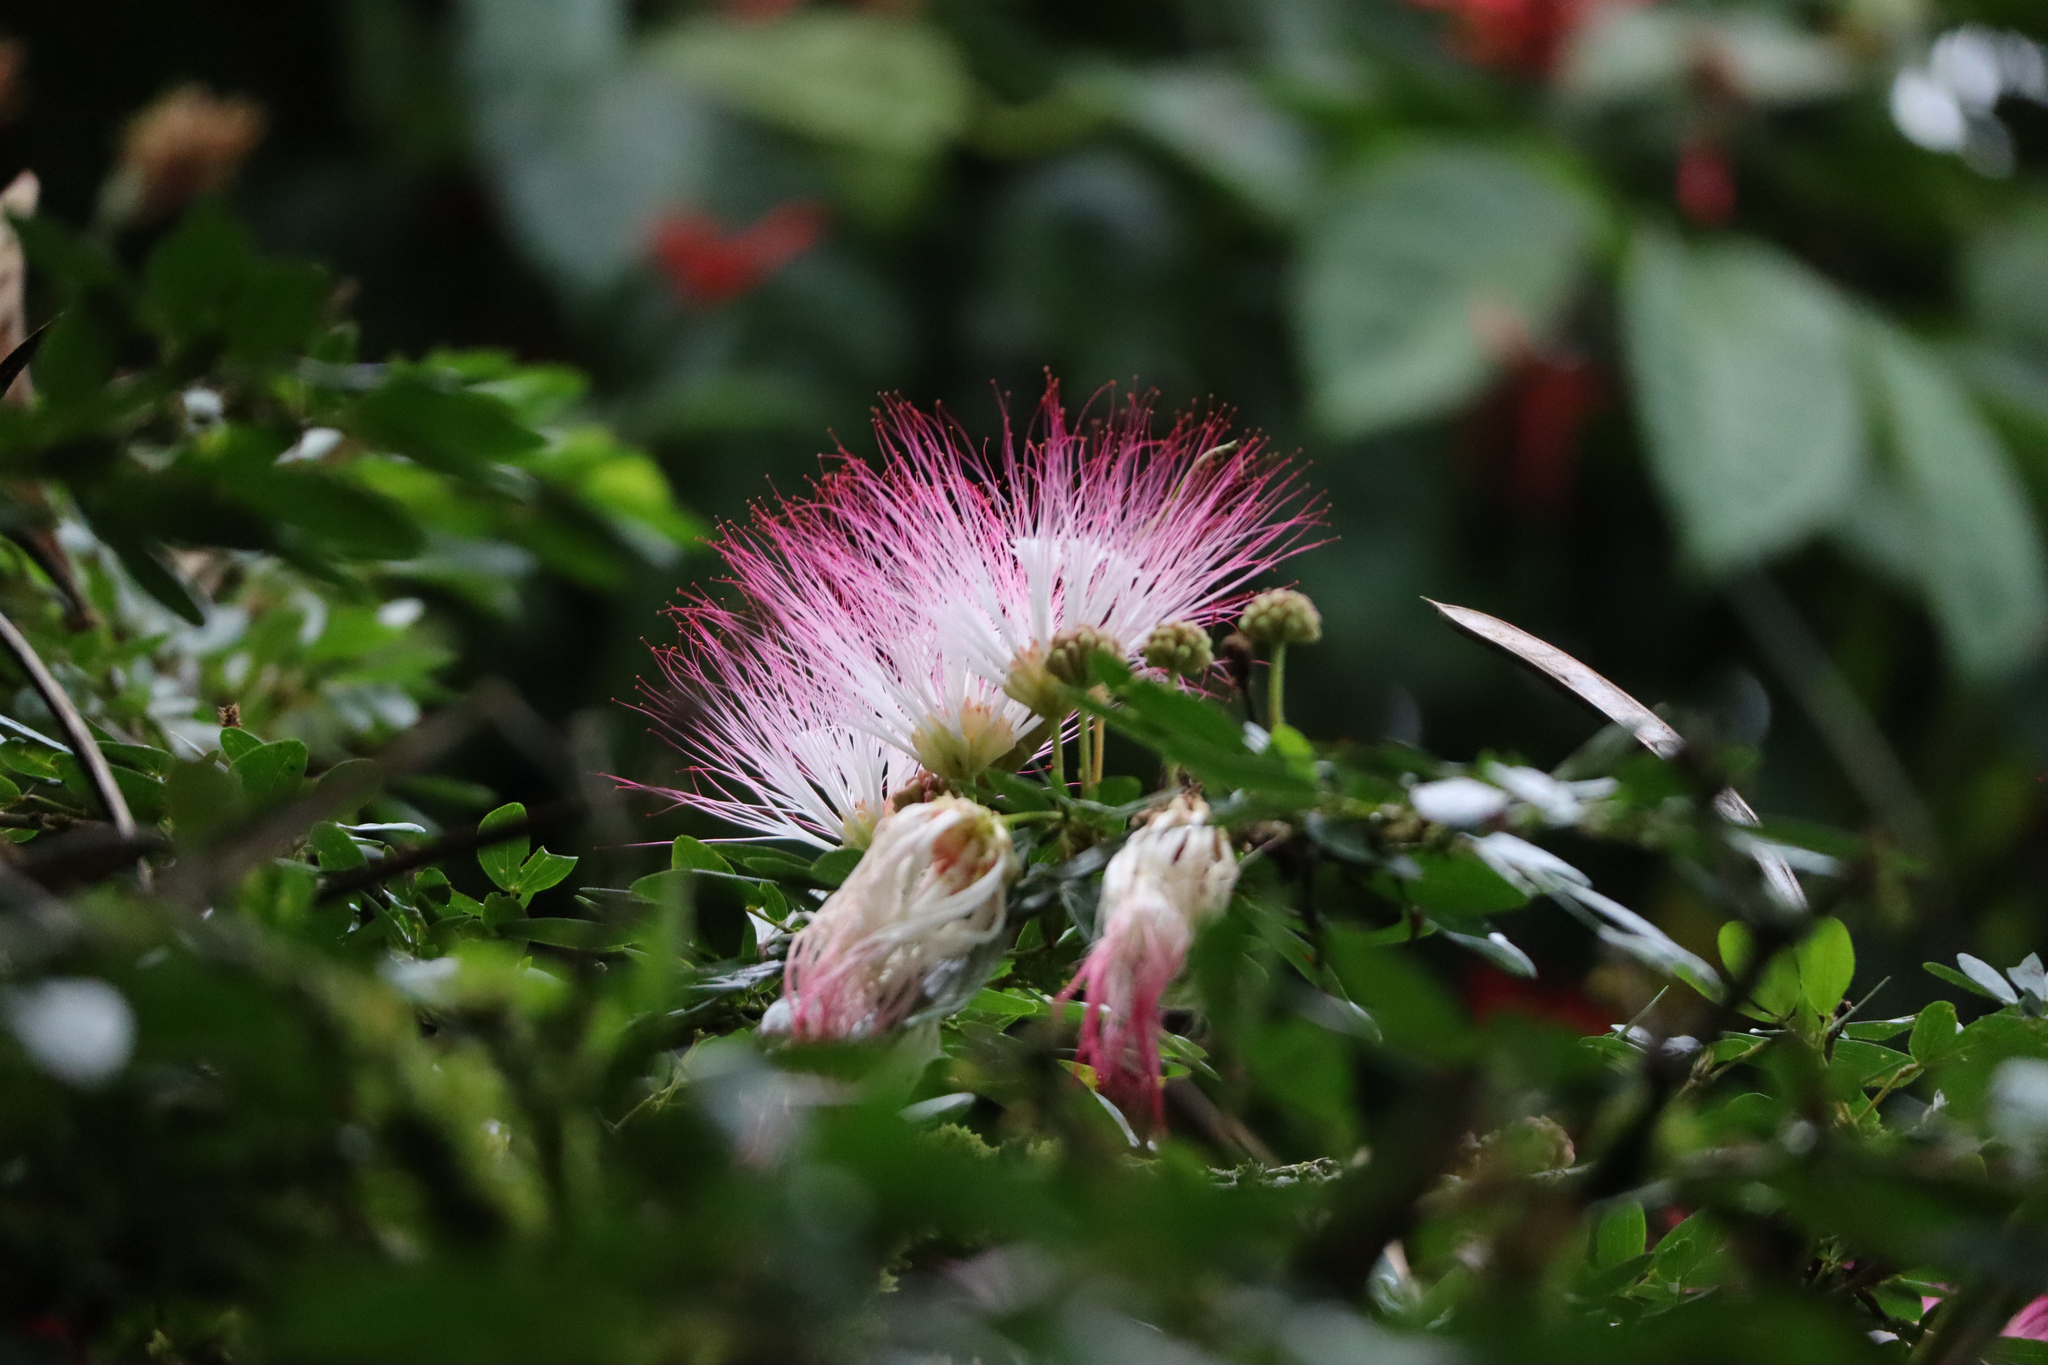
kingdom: Plantae
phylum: Tracheophyta
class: Magnoliopsida
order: Fabales
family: Fabaceae
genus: Calliandra
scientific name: Calliandra angustifolia
